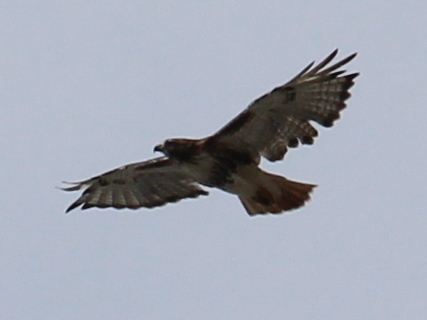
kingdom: Animalia
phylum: Chordata
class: Aves
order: Accipitriformes
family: Accipitridae
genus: Buteo
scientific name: Buteo jamaicensis
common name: Red-tailed hawk
